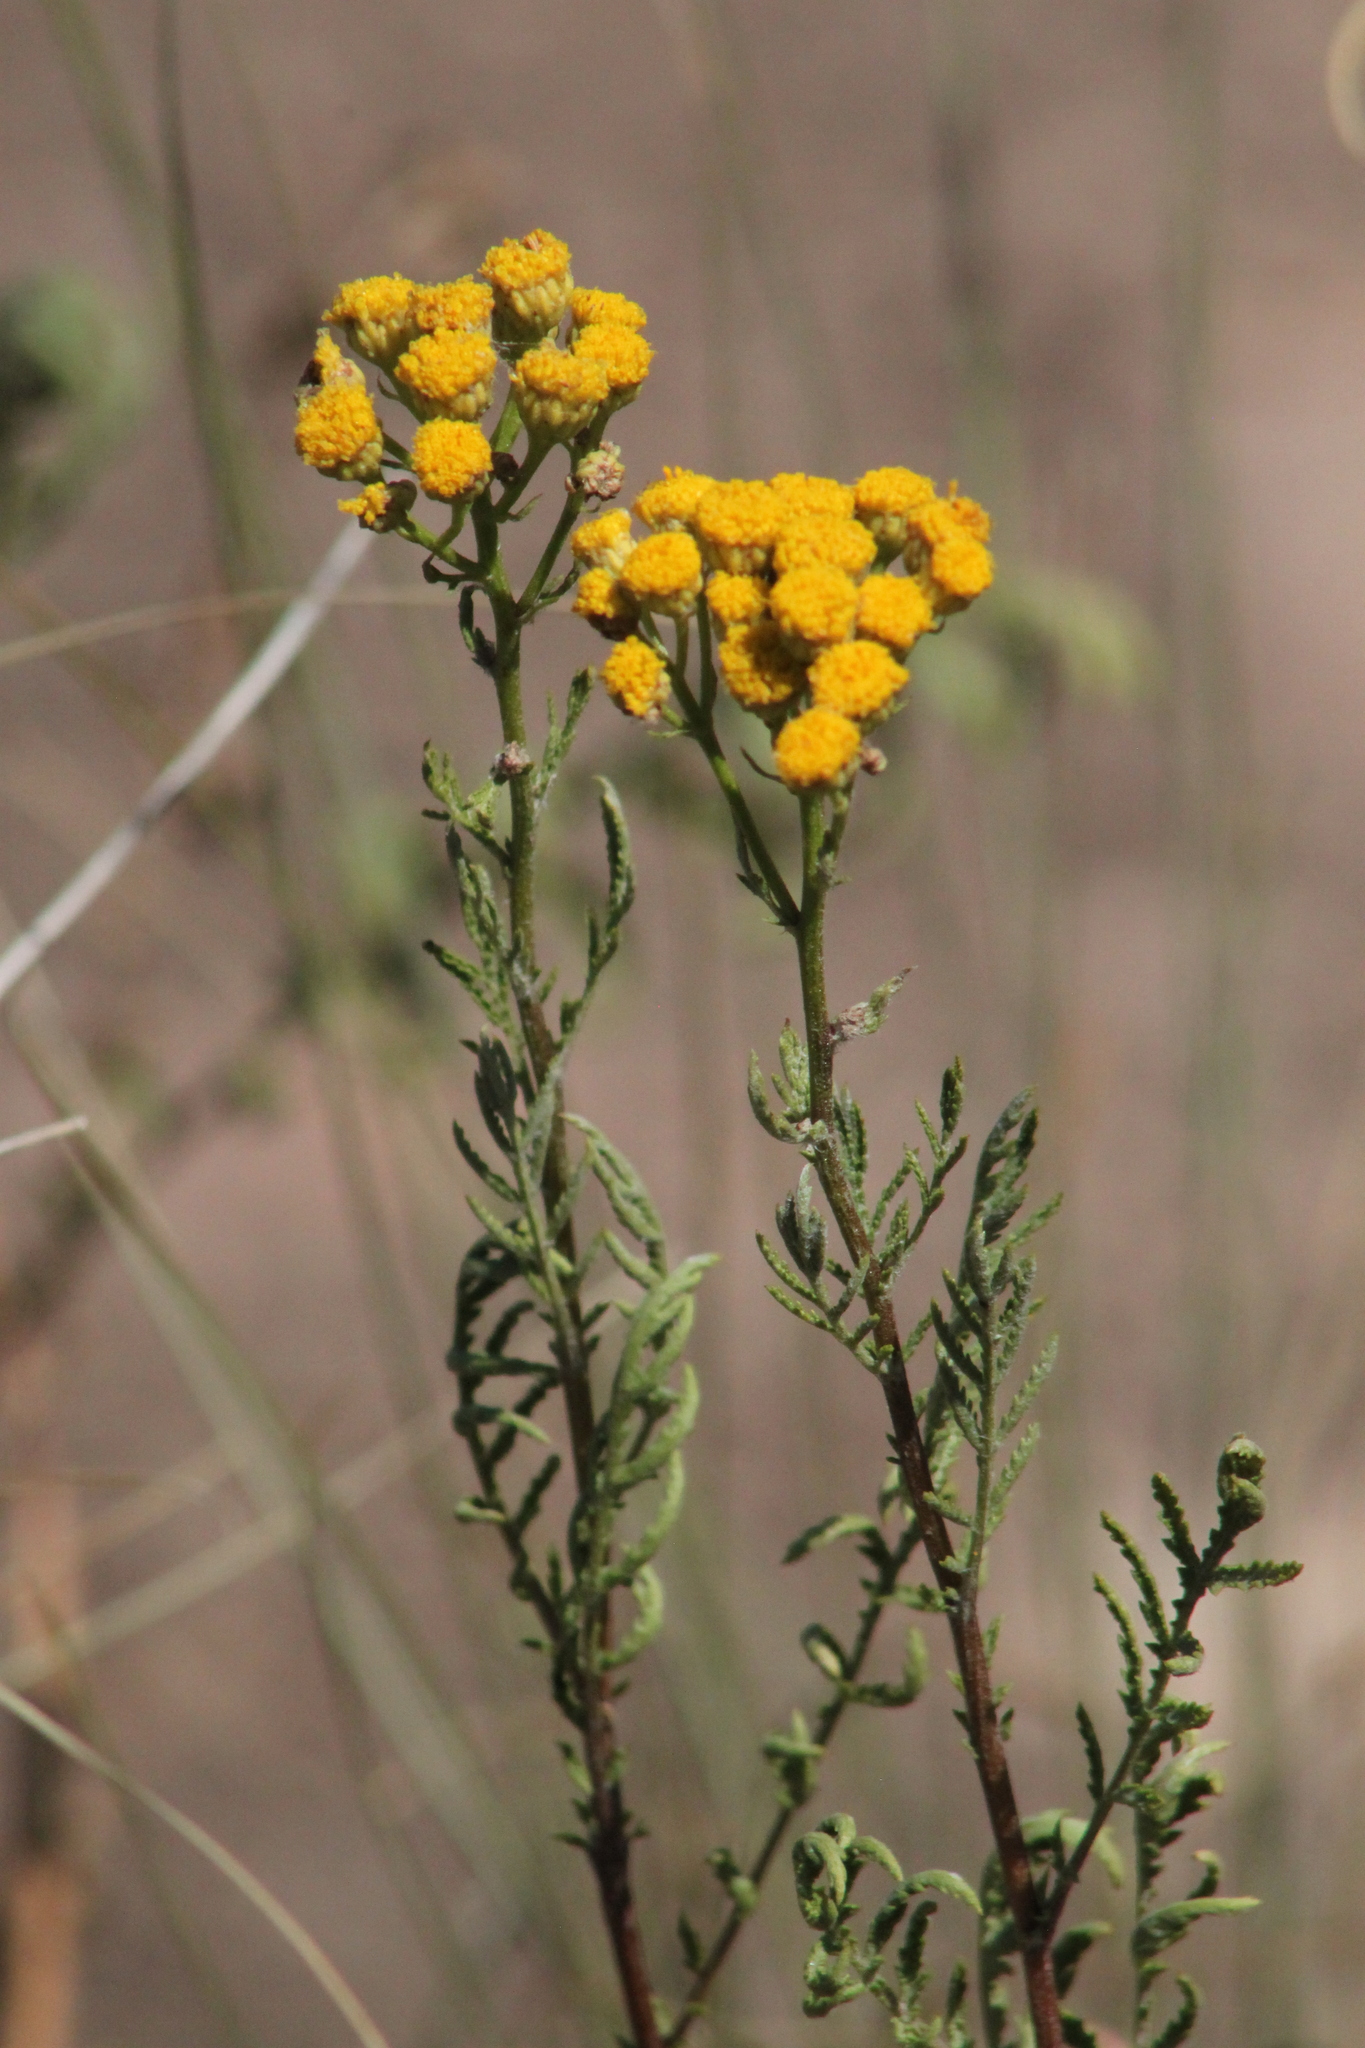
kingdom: Plantae
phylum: Tracheophyta
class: Magnoliopsida
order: Asterales
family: Asteraceae
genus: Tanacetum
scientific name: Tanacetum vulgare
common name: Common tansy
